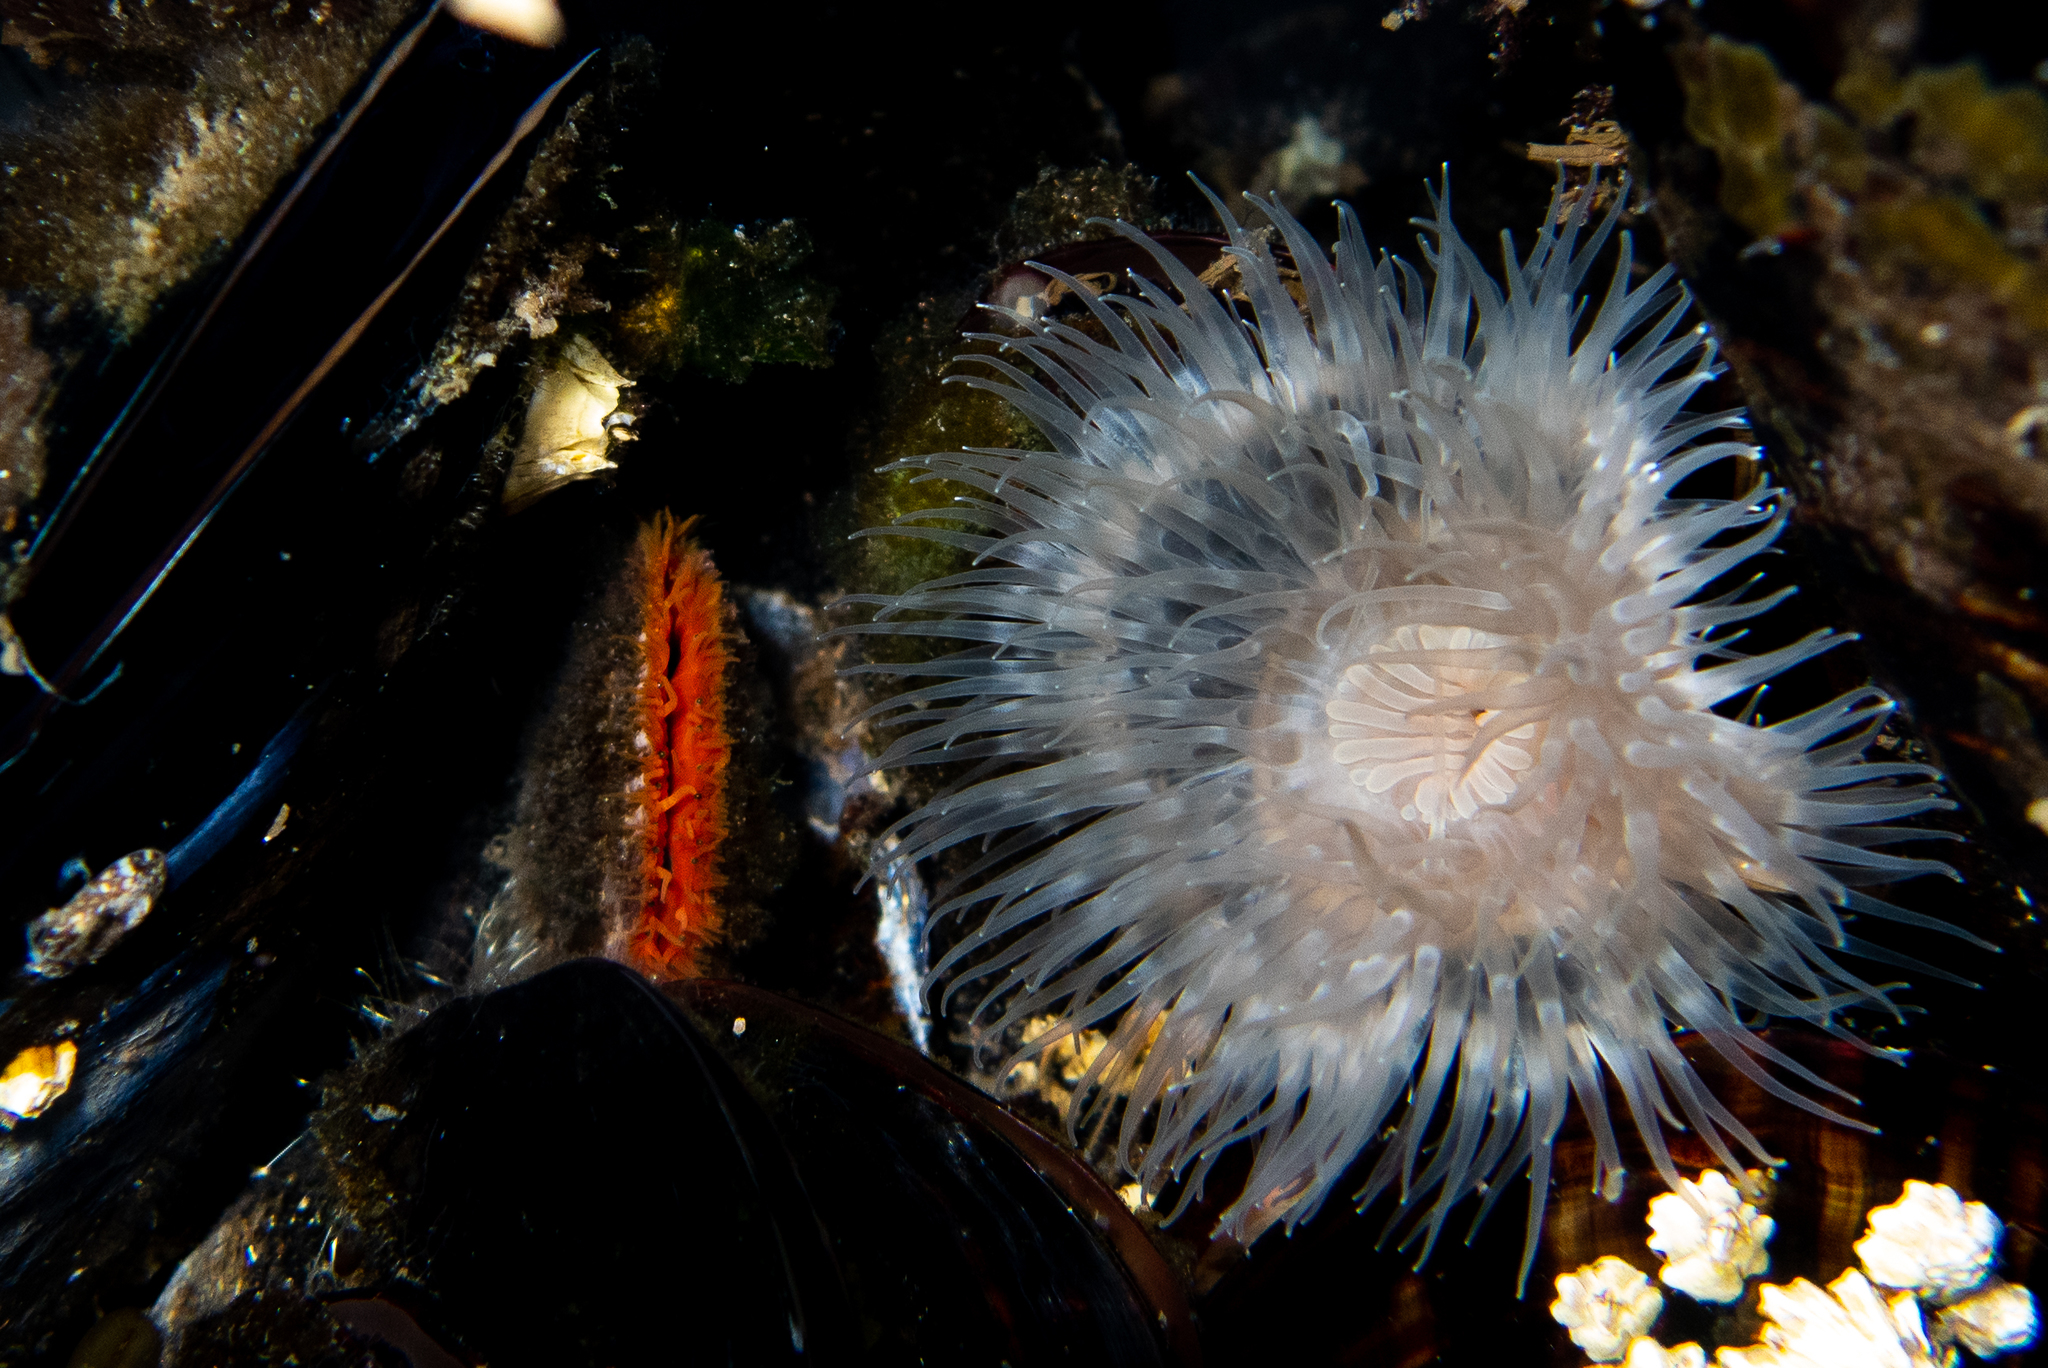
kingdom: Animalia
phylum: Cnidaria
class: Anthozoa
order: Actiniaria
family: Metridiidae
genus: Metridium
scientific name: Metridium senile
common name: Clonal plumose anemone
